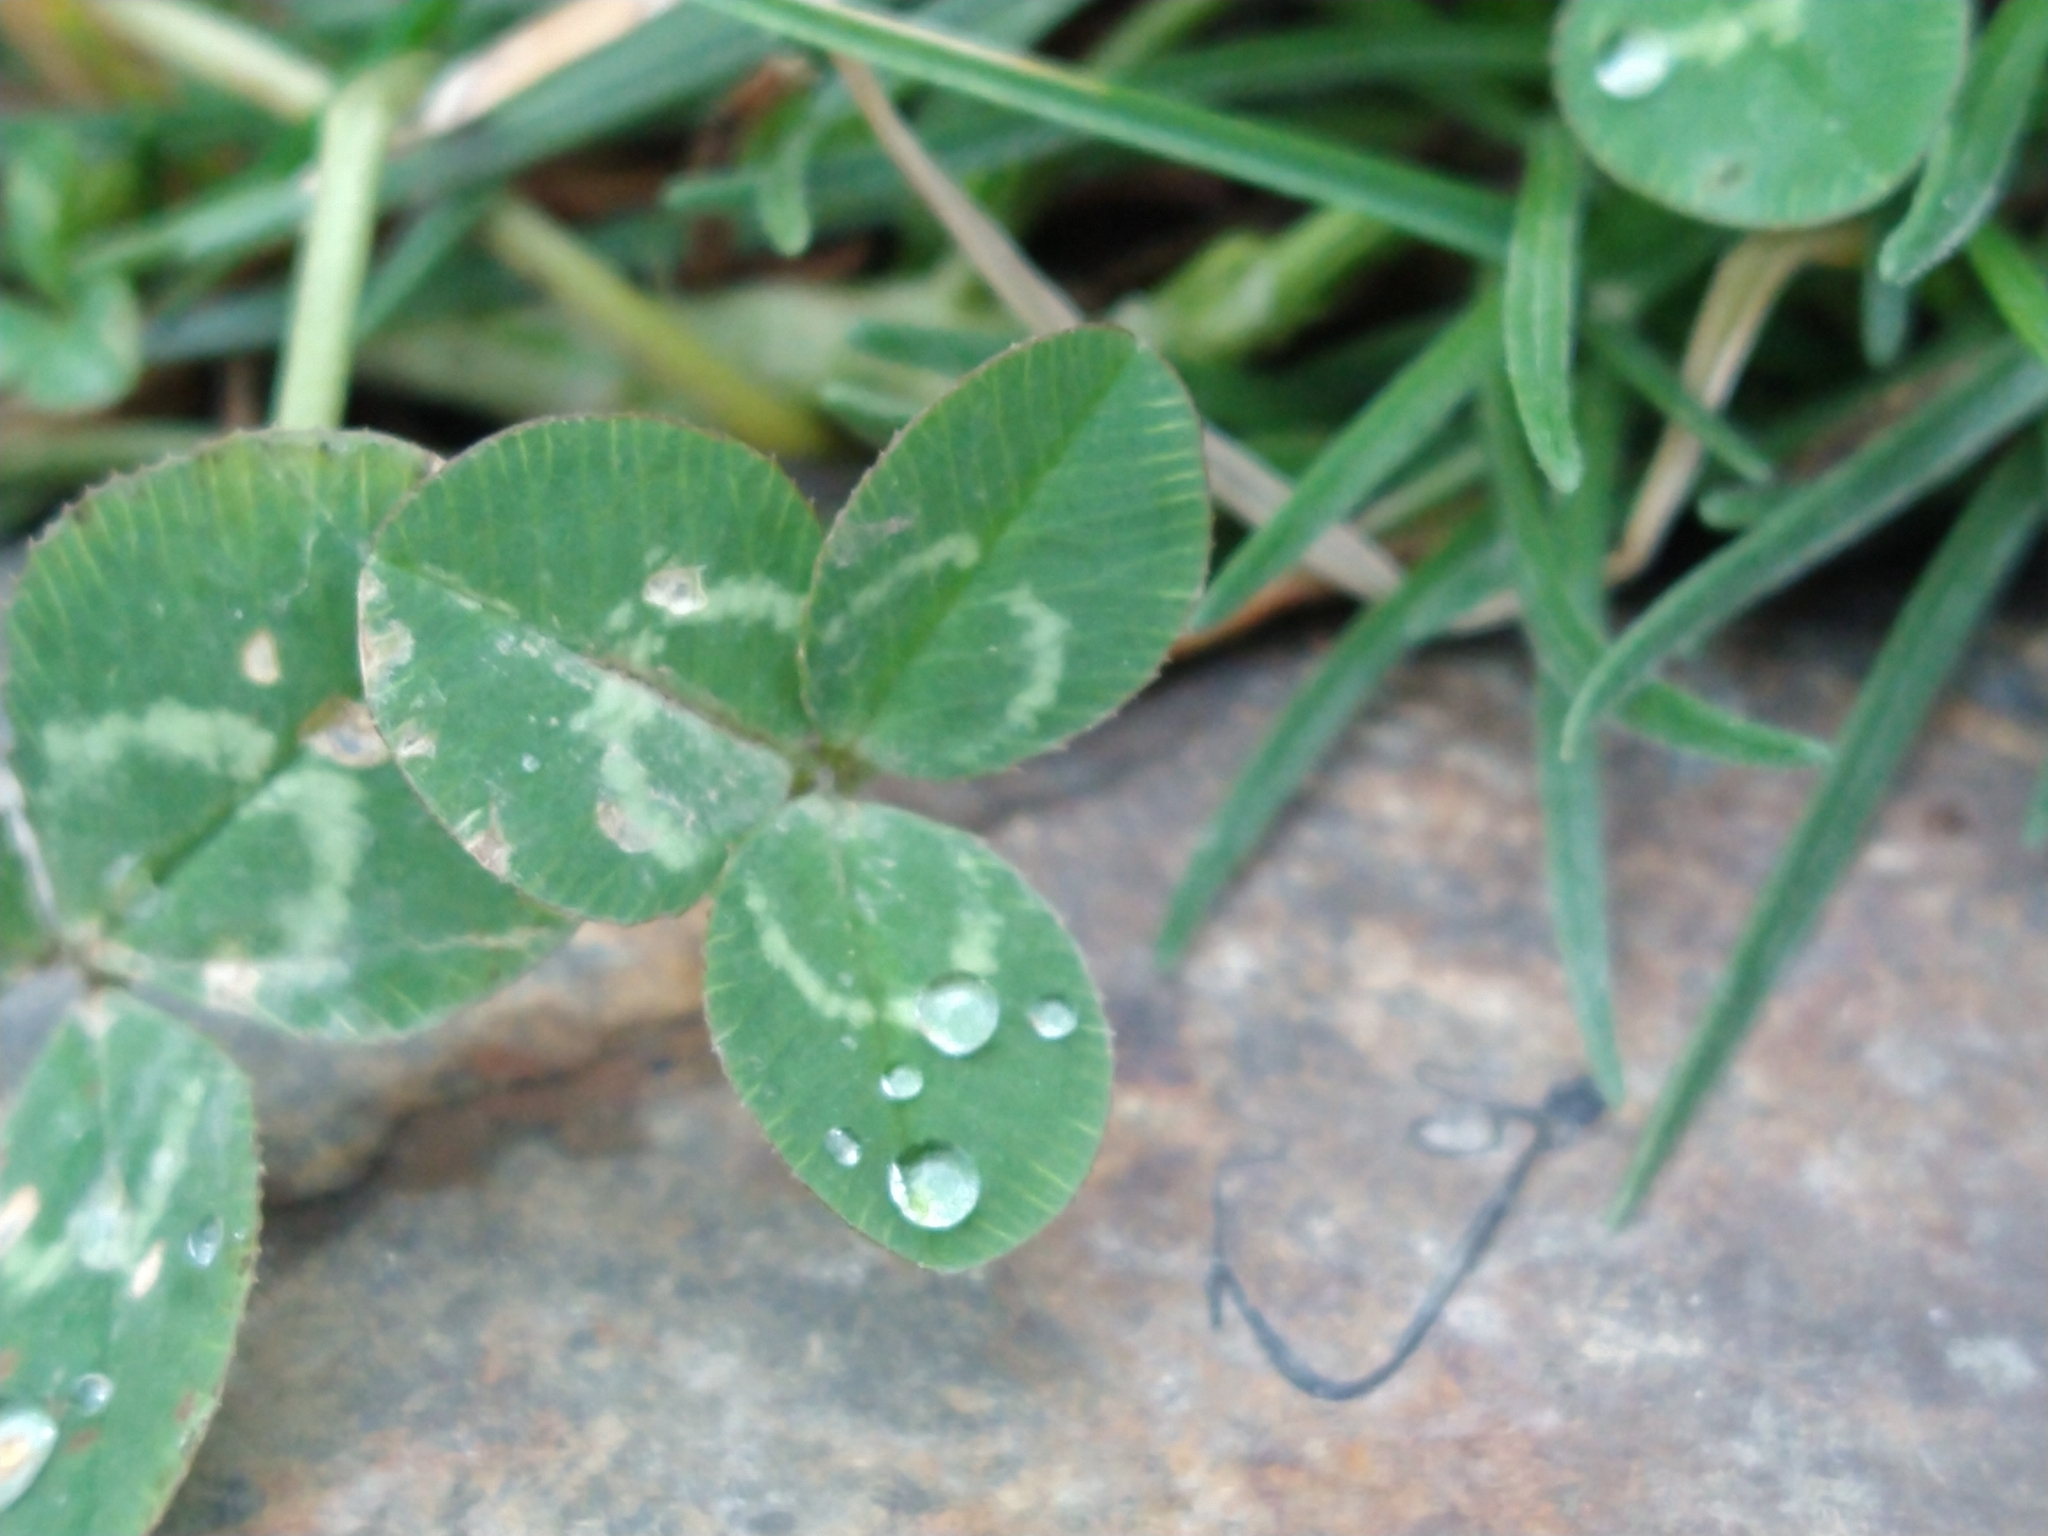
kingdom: Plantae
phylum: Tracheophyta
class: Magnoliopsida
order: Fabales
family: Fabaceae
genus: Trifolium
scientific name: Trifolium repens
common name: White clover
